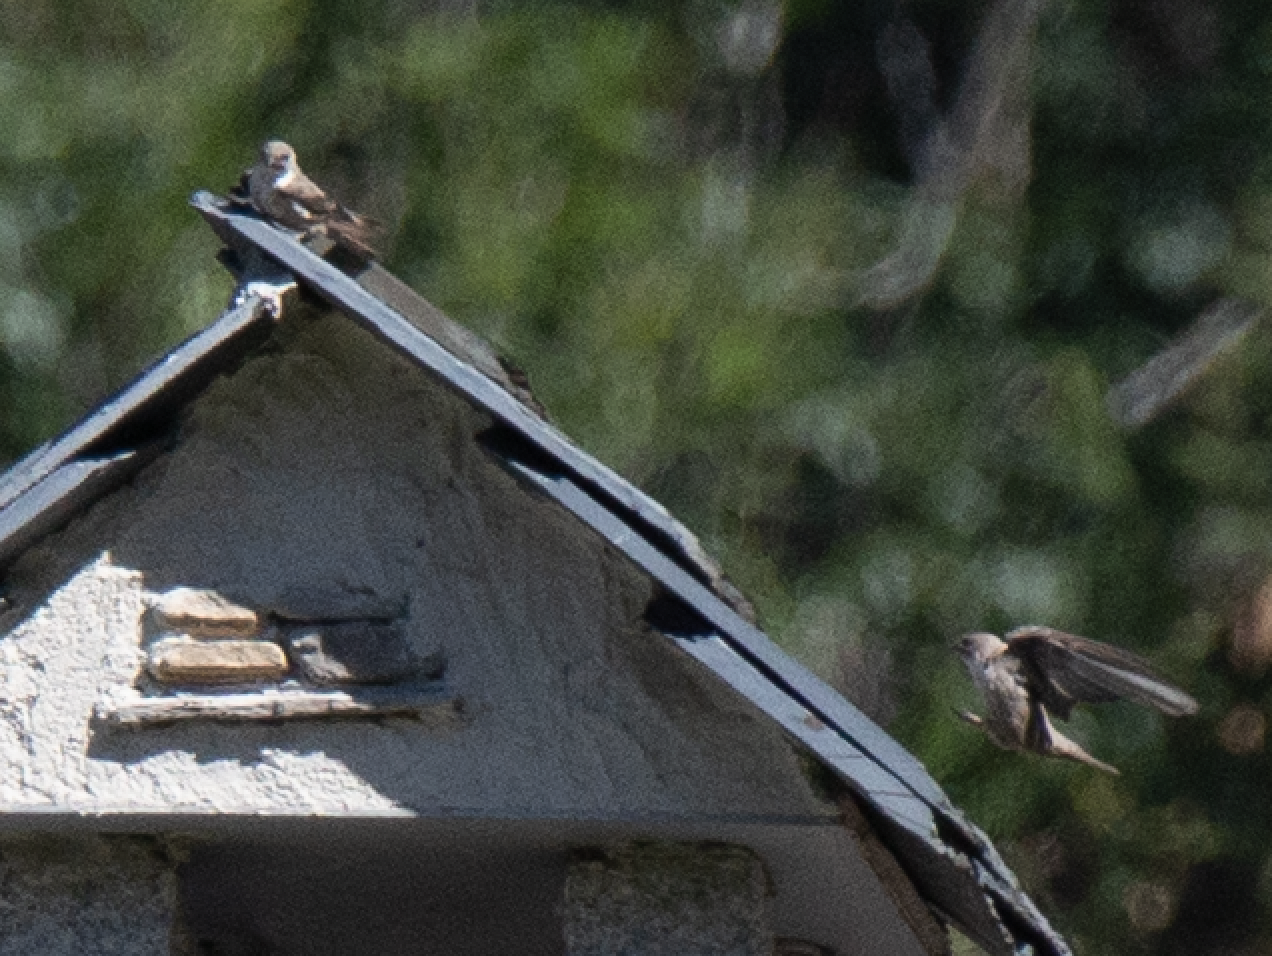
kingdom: Animalia
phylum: Chordata
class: Aves
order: Passeriformes
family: Hirundinidae
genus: Ptyonoprogne
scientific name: Ptyonoprogne rupestris
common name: Eurasian crag martin
